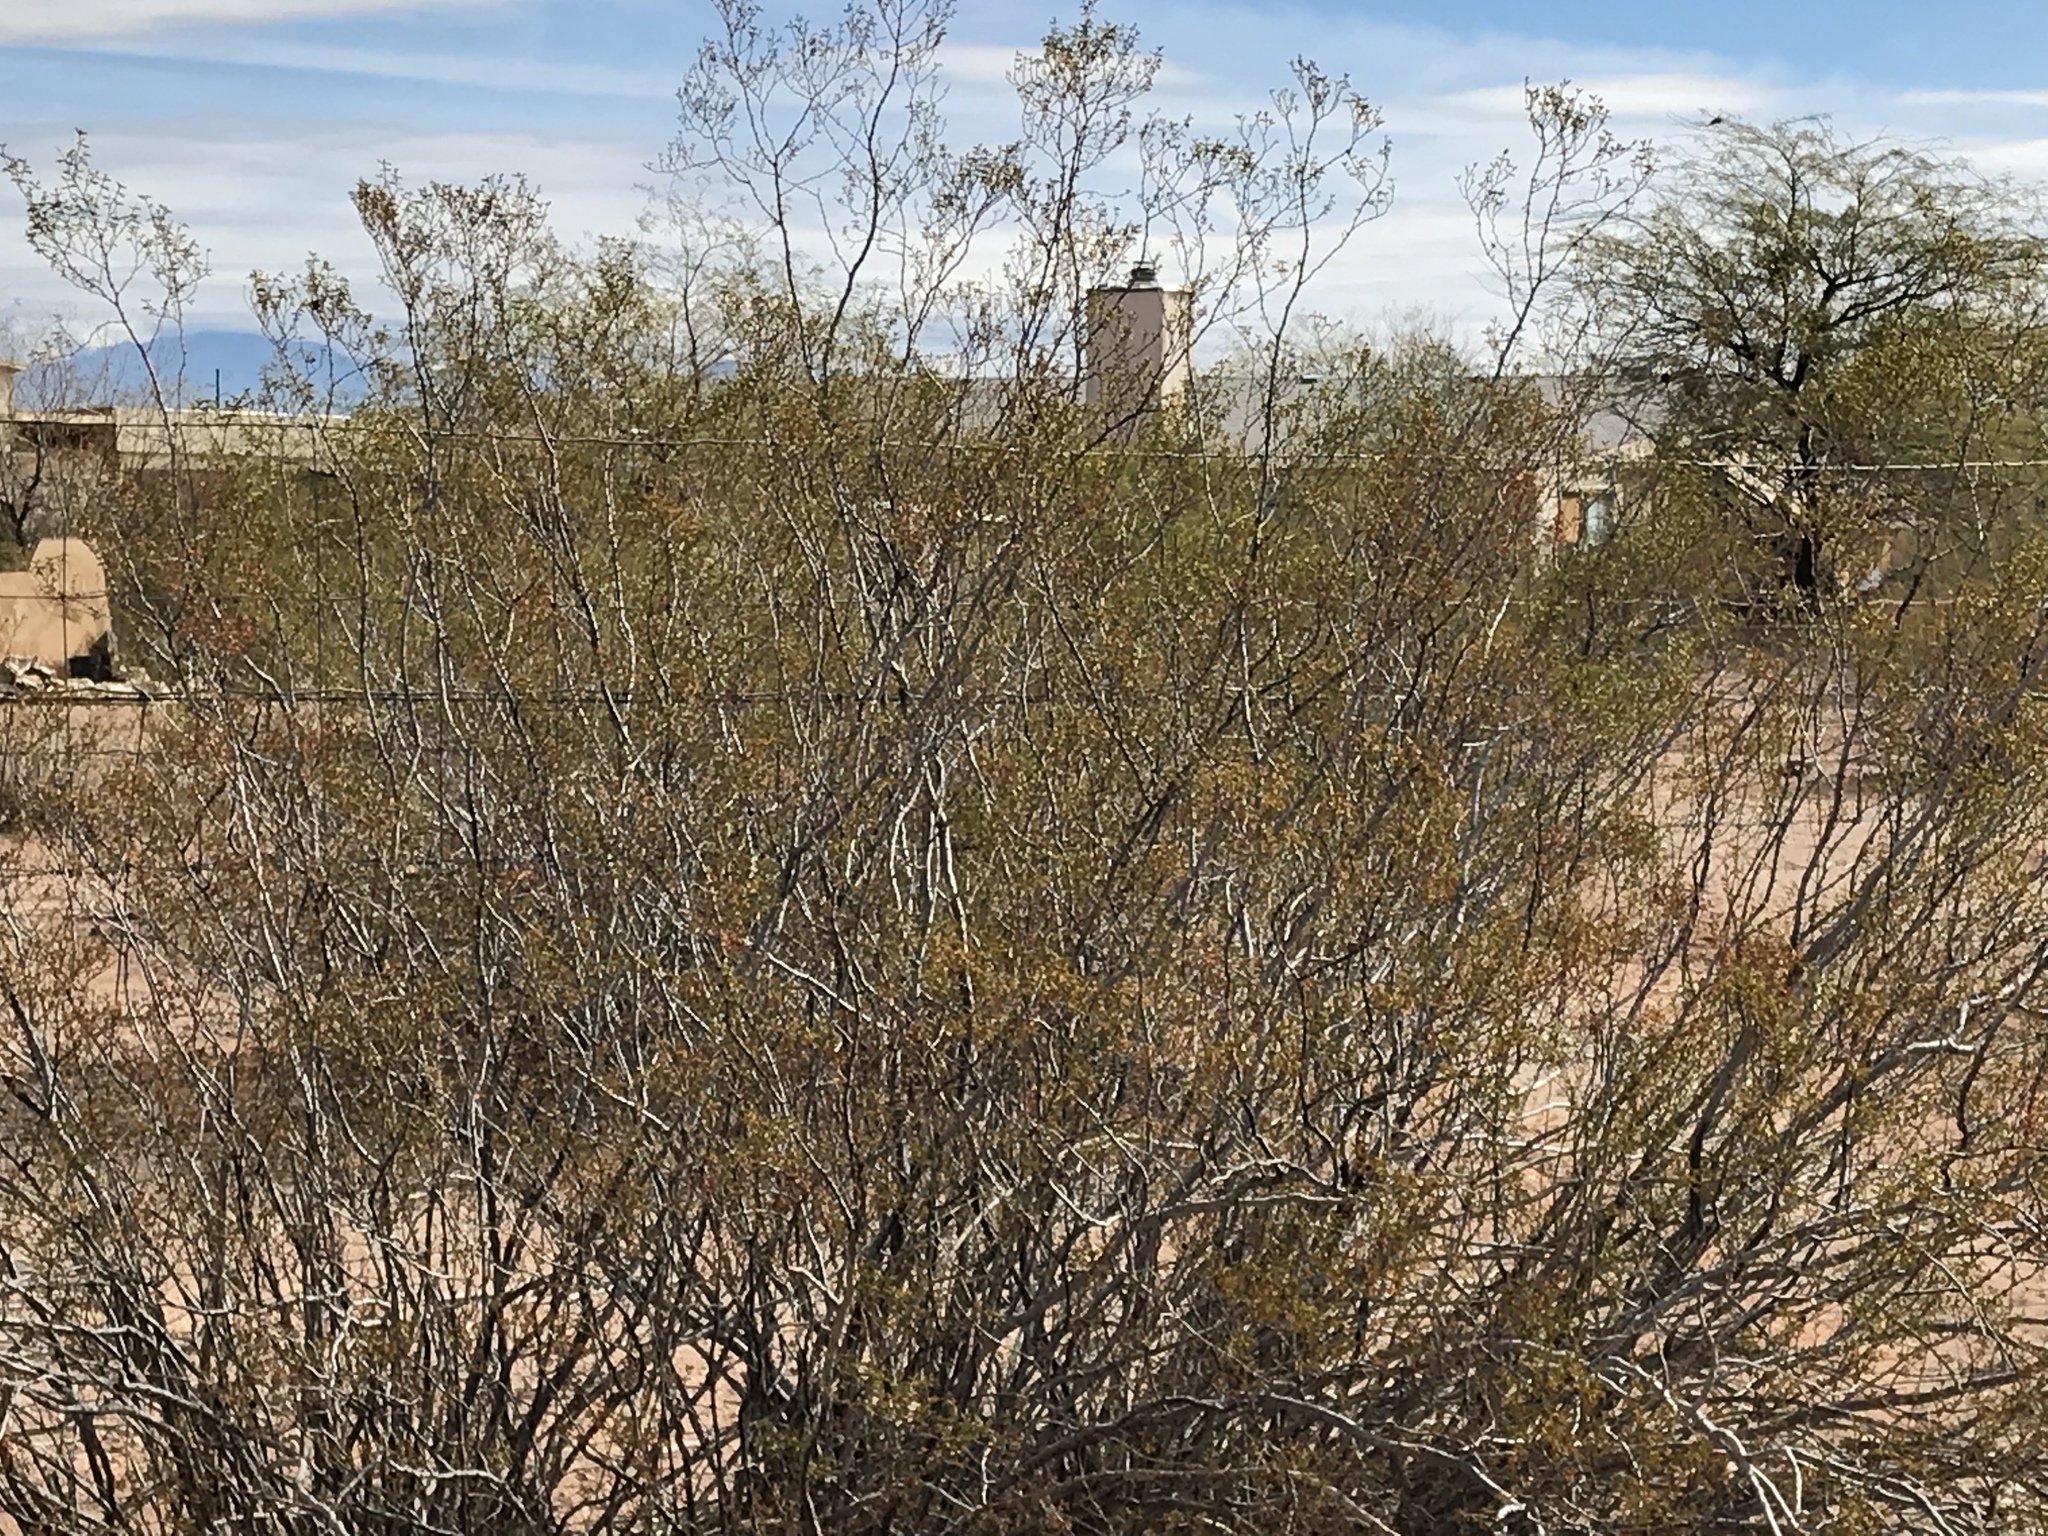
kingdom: Plantae
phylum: Tracheophyta
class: Magnoliopsida
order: Zygophyllales
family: Zygophyllaceae
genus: Larrea
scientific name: Larrea tridentata
